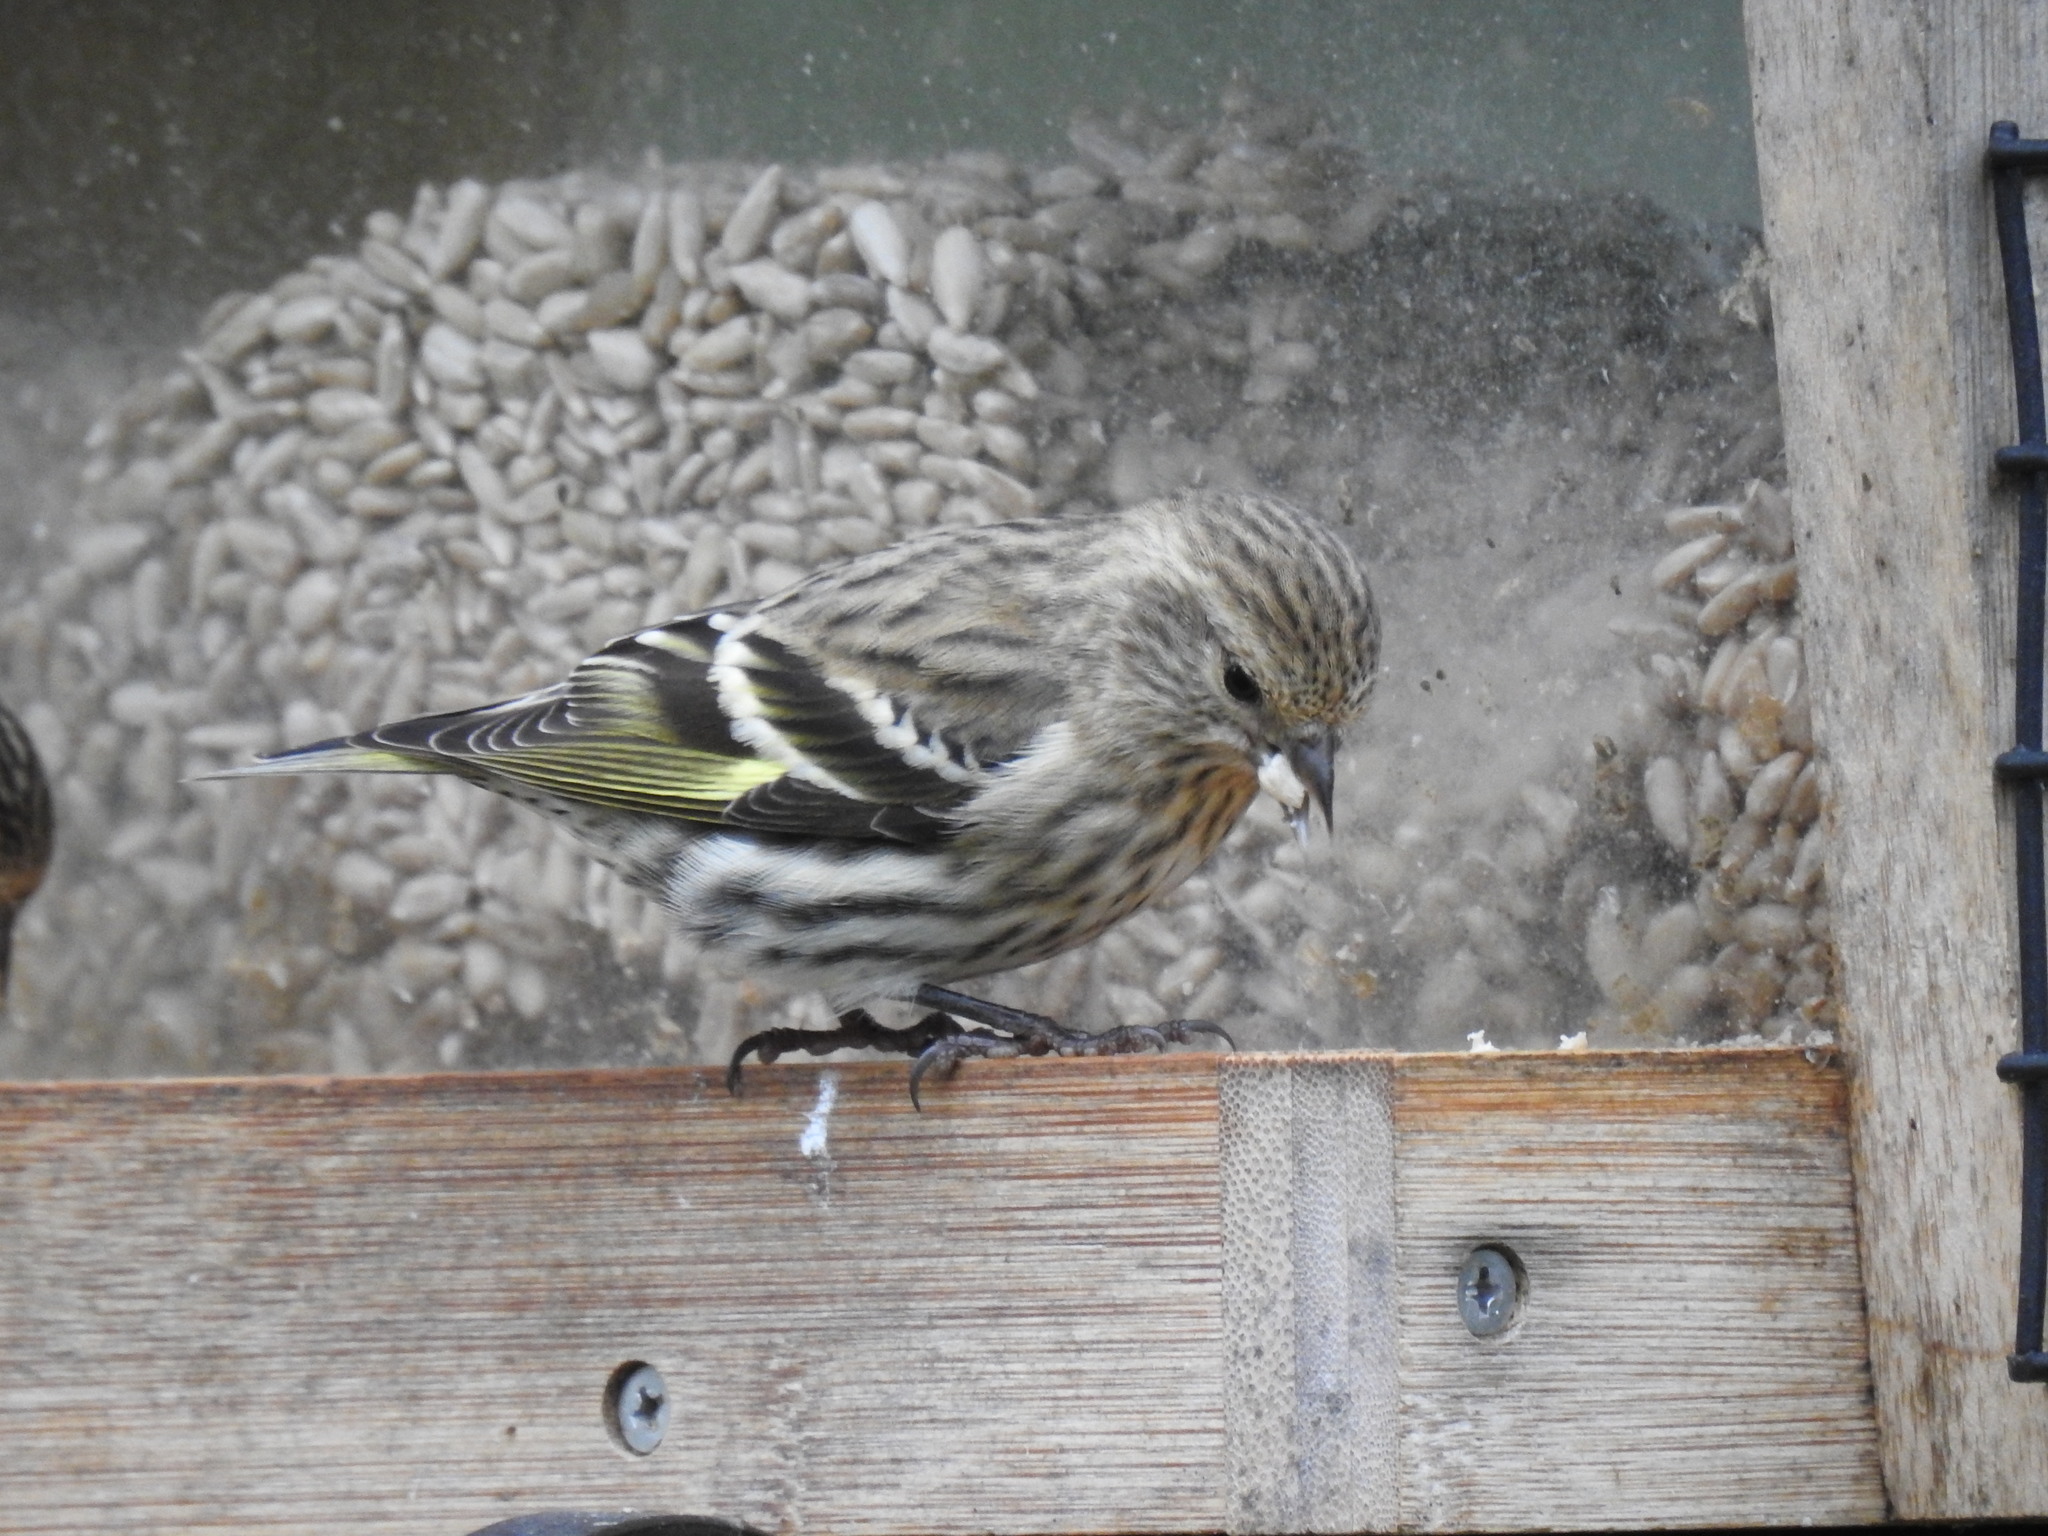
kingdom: Animalia
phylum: Chordata
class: Aves
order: Passeriformes
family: Fringillidae
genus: Spinus
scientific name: Spinus pinus
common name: Pine siskin
